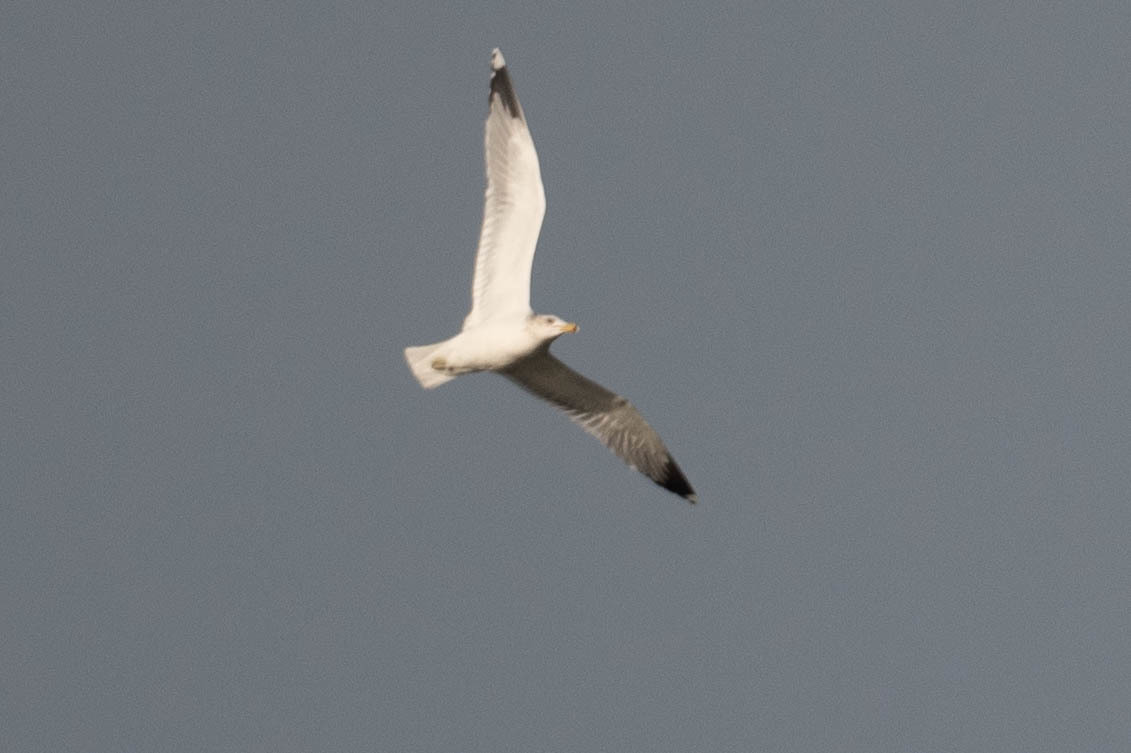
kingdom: Animalia
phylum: Chordata
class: Aves
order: Charadriiformes
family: Laridae
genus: Larus
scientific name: Larus californicus
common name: California gull
